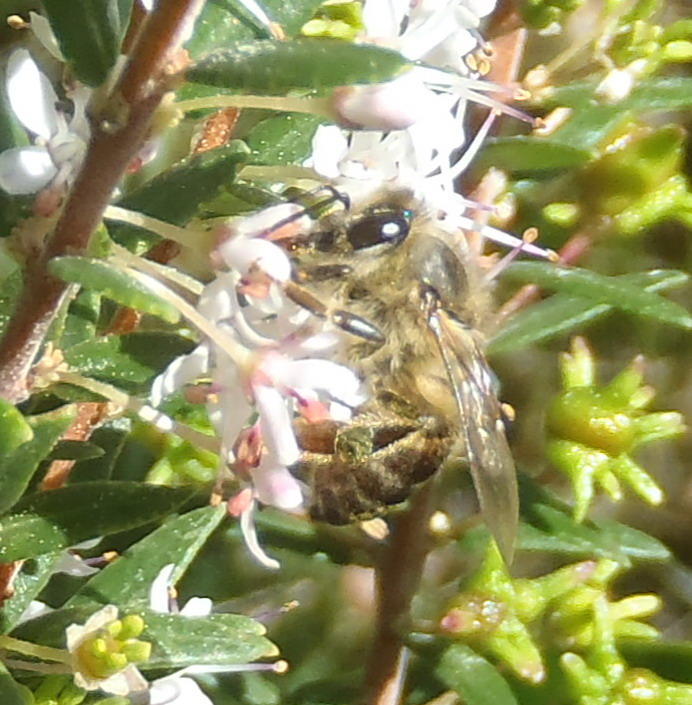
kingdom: Animalia
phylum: Arthropoda
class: Insecta
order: Hymenoptera
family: Apidae
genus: Apis
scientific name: Apis mellifera
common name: Honey bee
